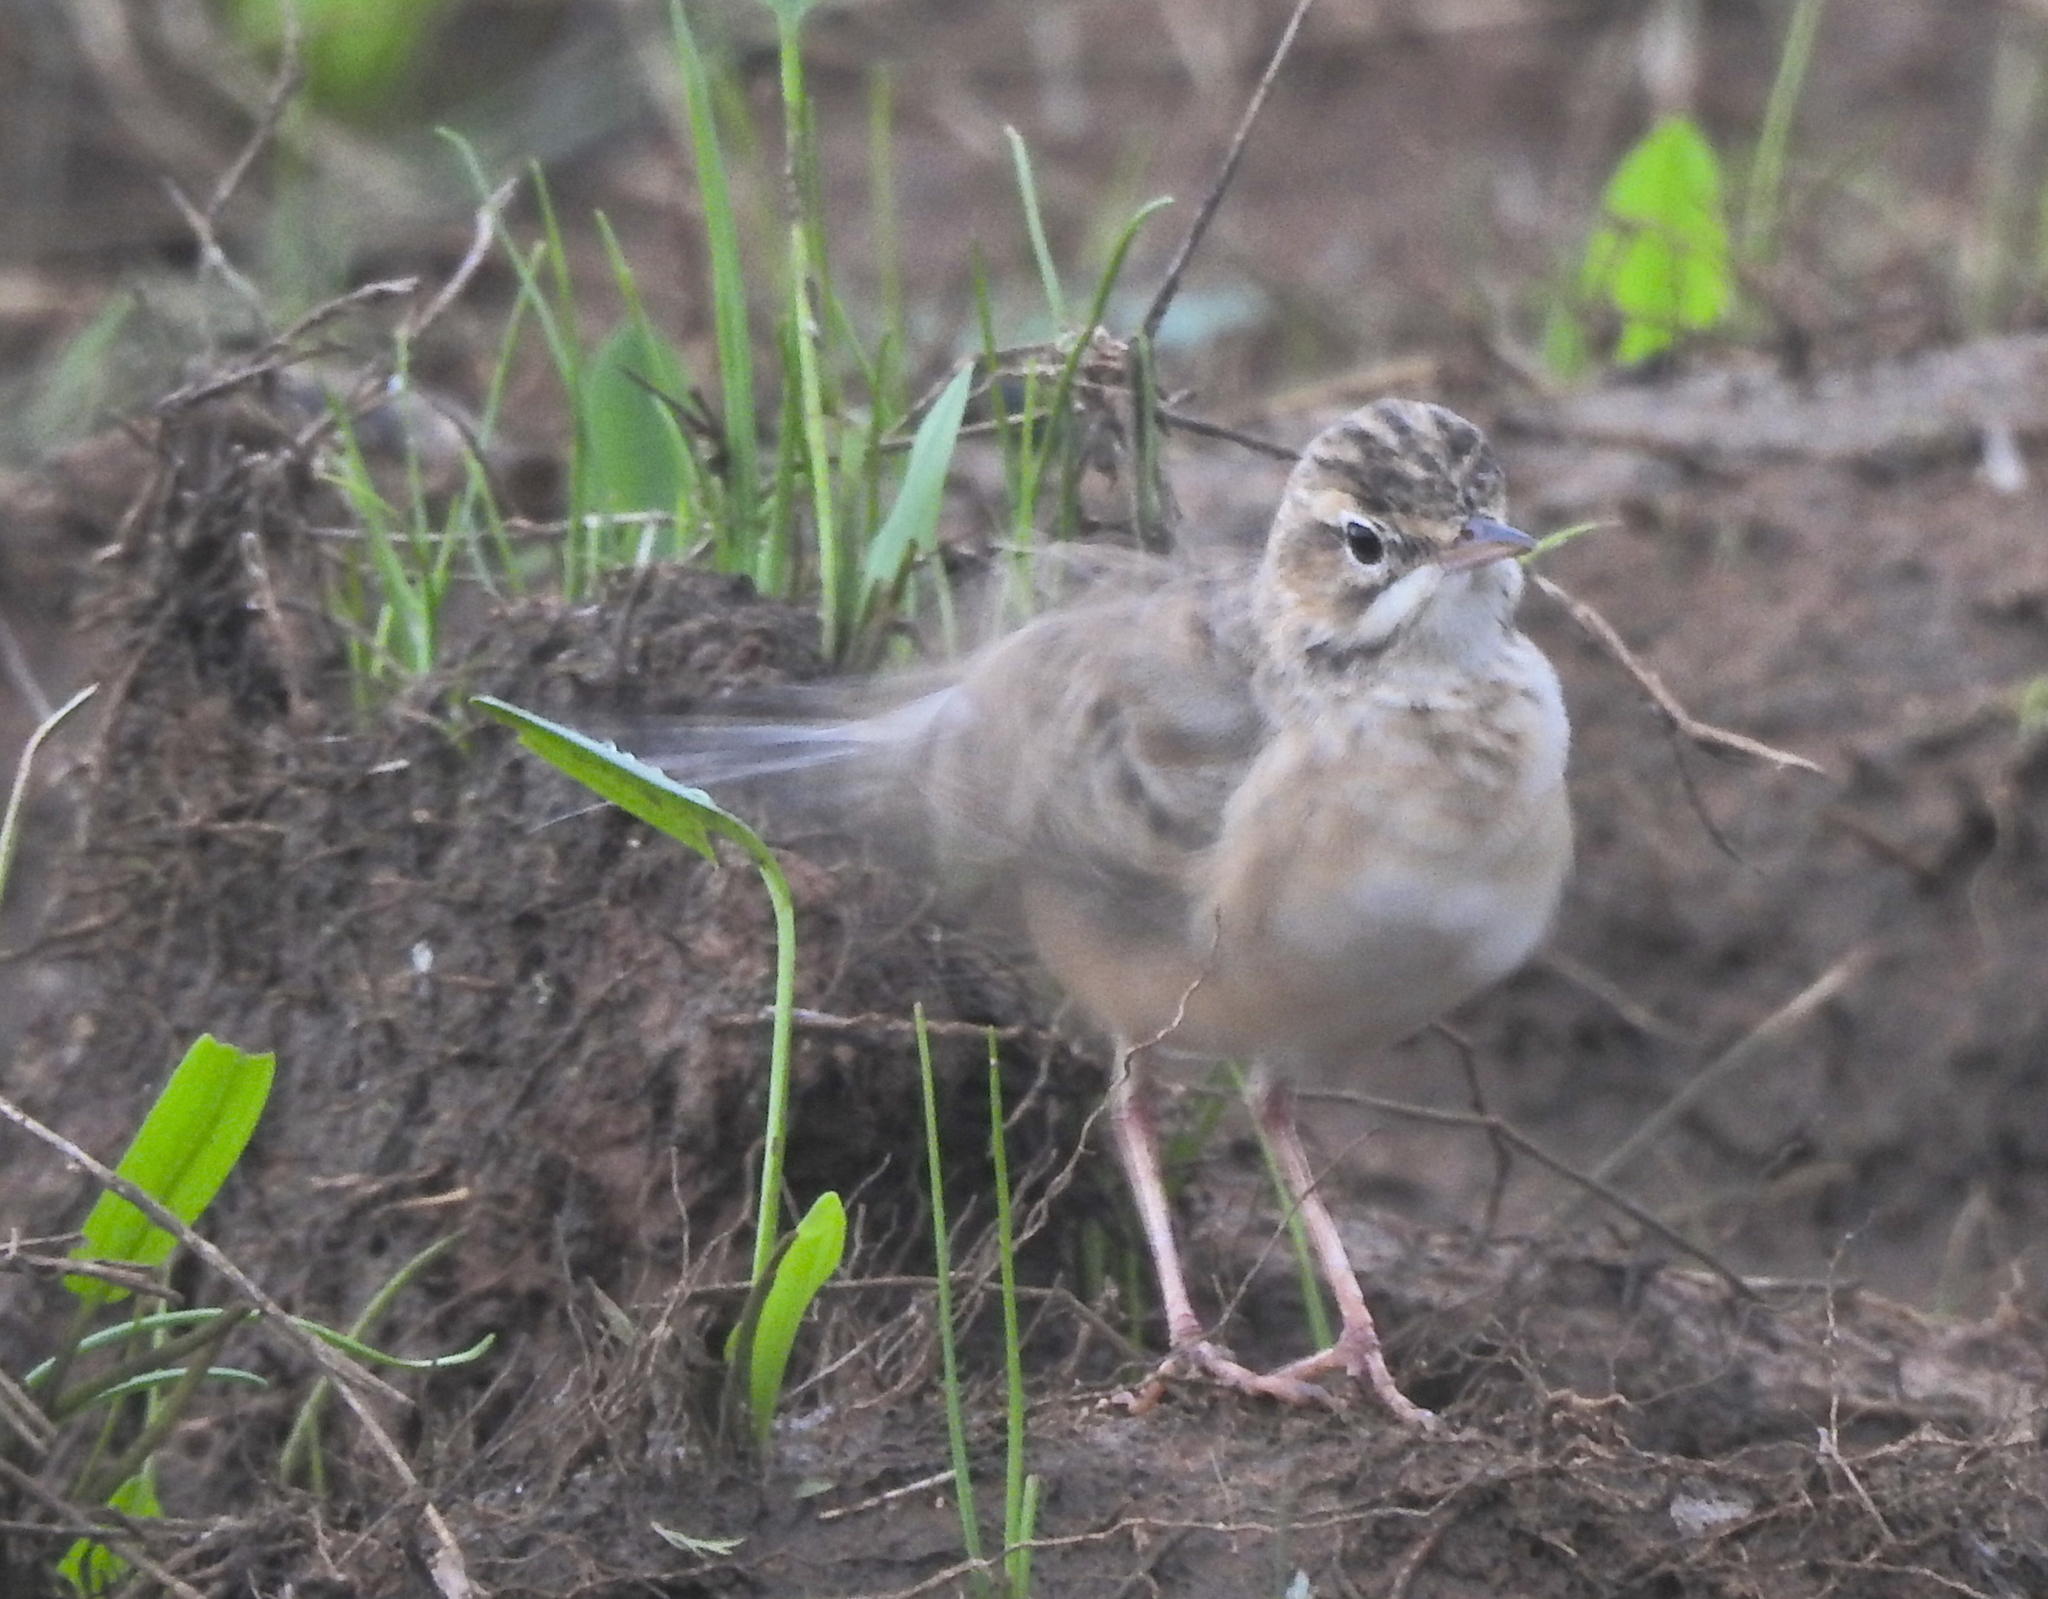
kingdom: Animalia
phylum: Chordata
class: Aves
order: Passeriformes
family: Motacillidae
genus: Anthus
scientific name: Anthus rufulus
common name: Paddyfield pipit
